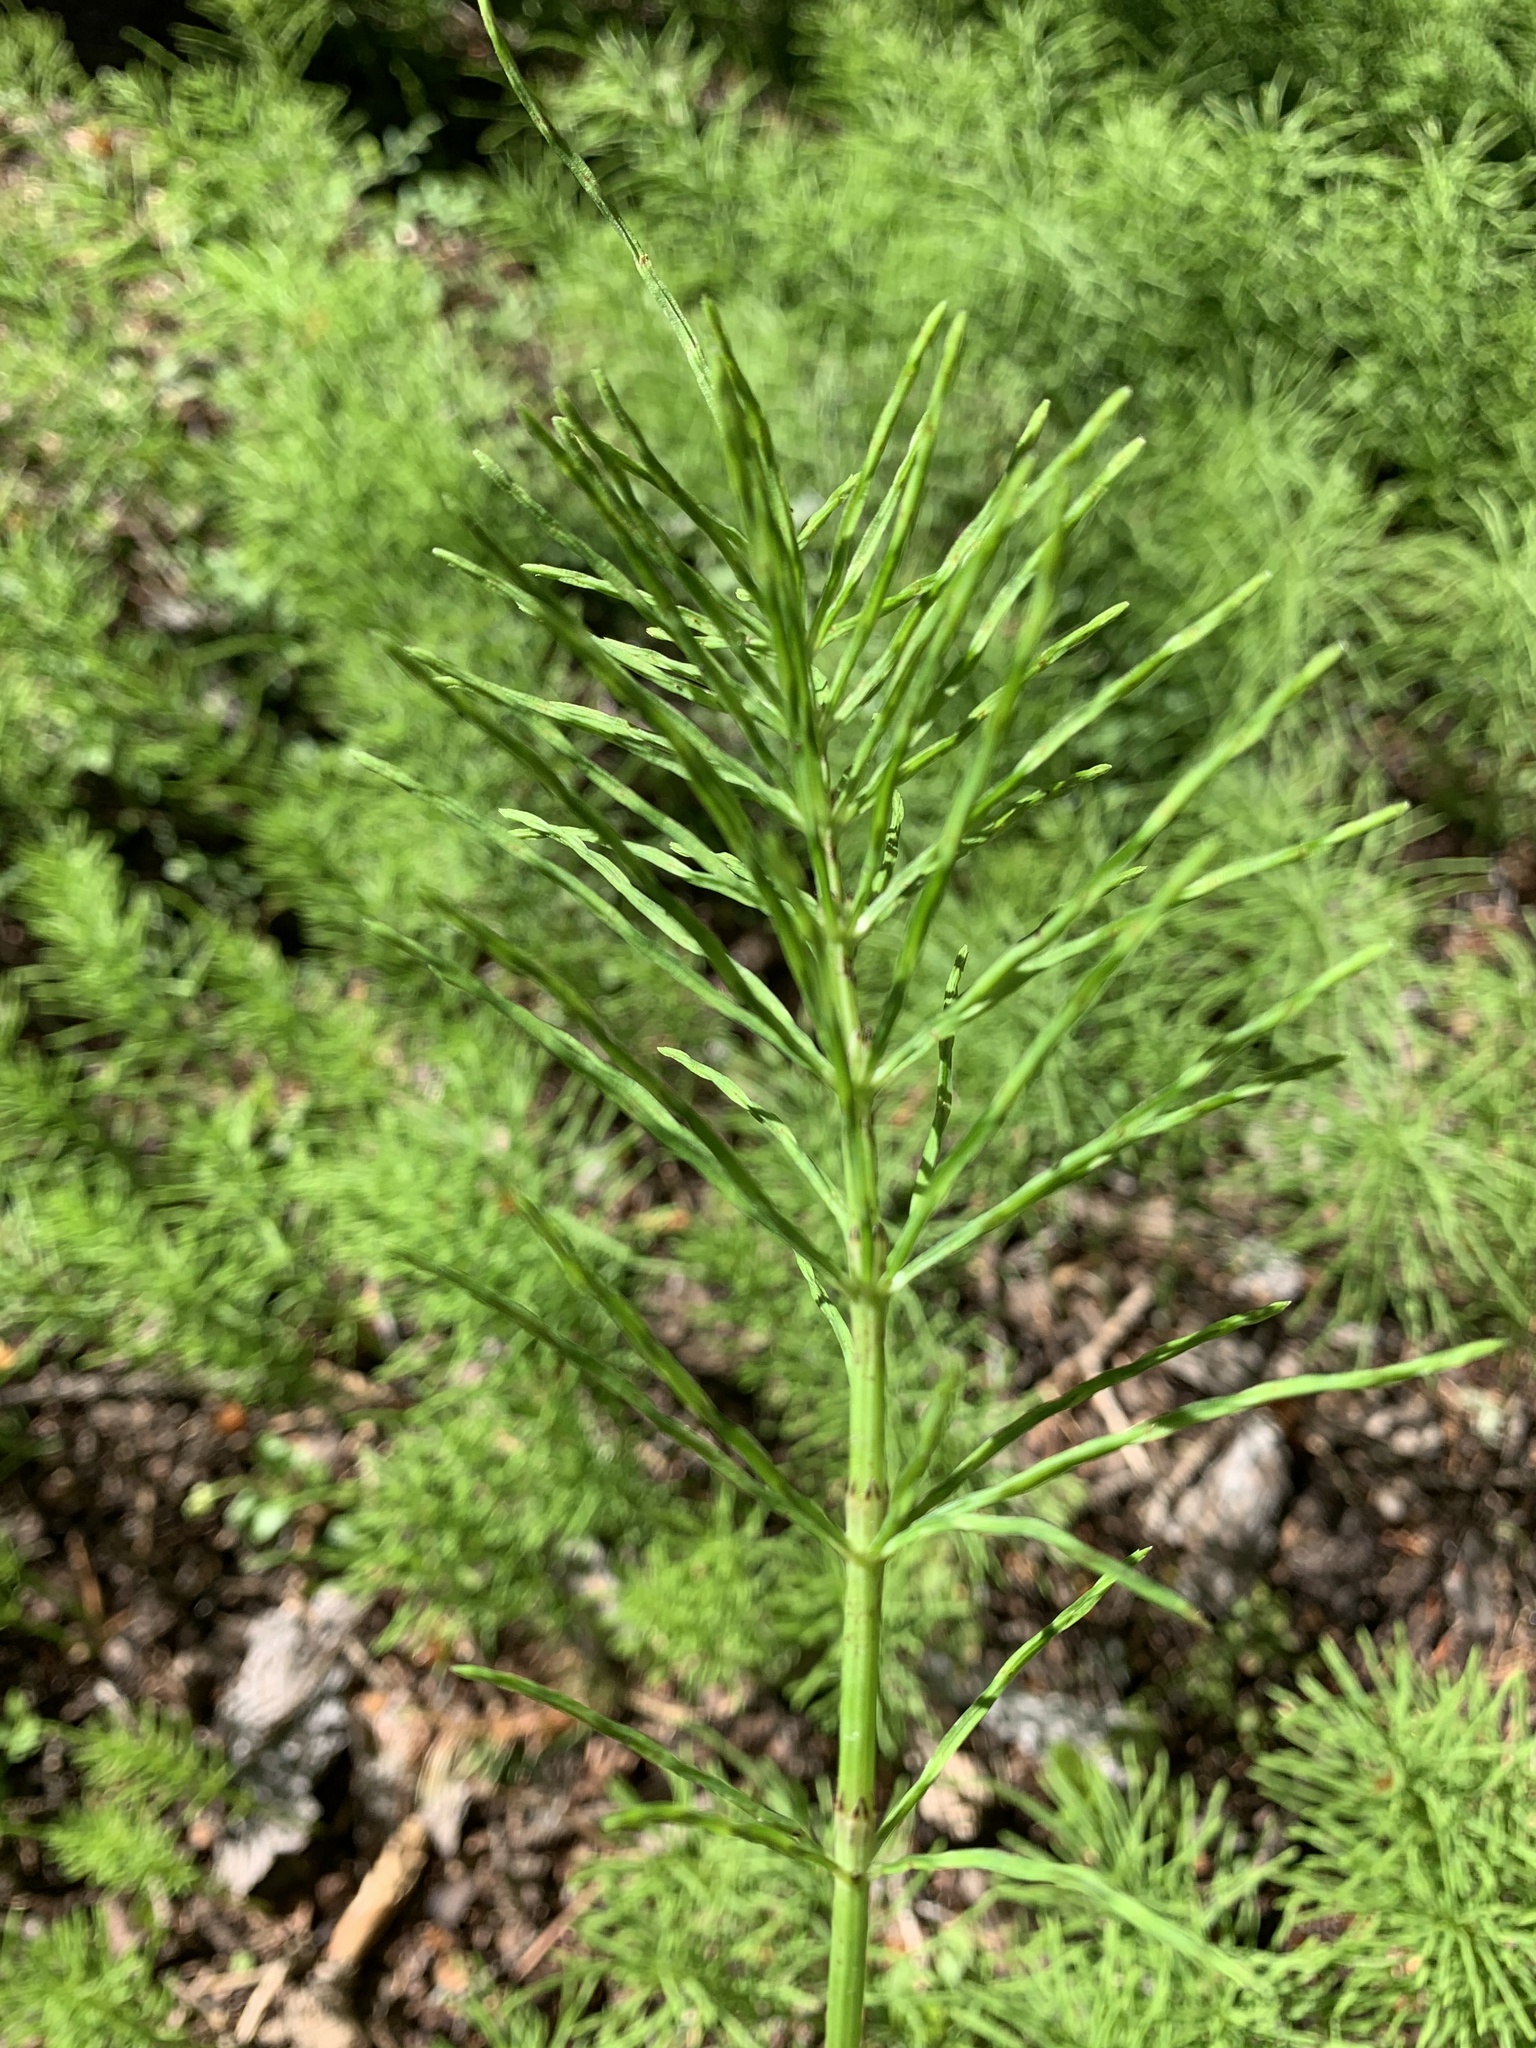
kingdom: Plantae
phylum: Tracheophyta
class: Polypodiopsida
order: Equisetales
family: Equisetaceae
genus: Equisetum
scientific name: Equisetum arvense
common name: Field horsetail
